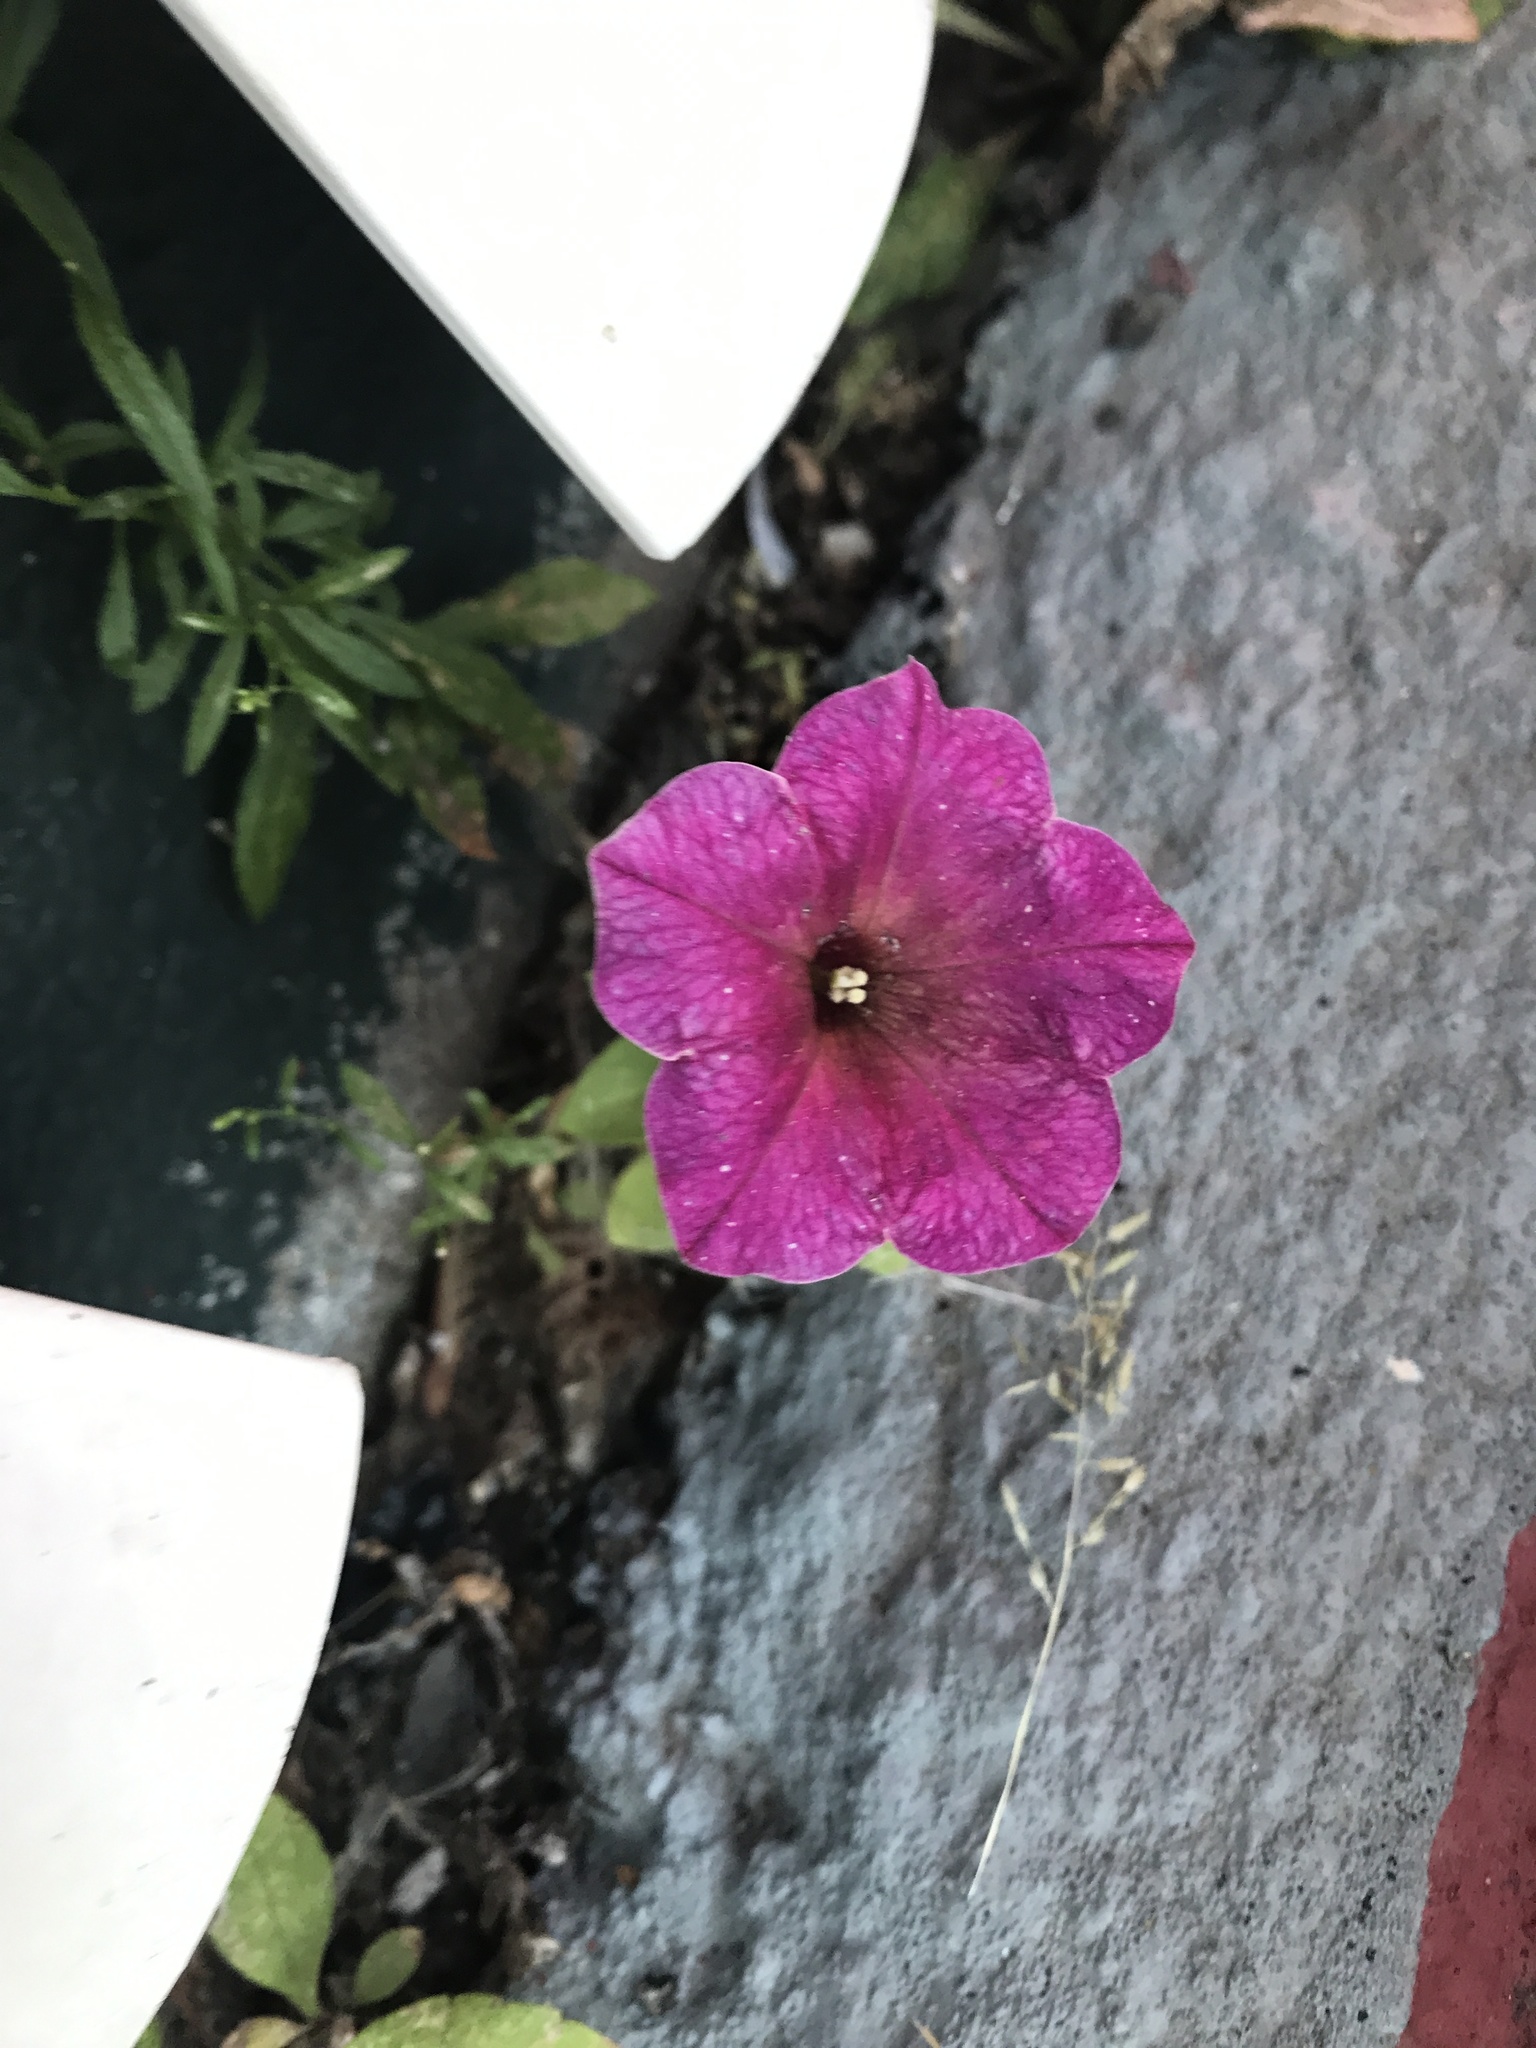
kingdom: Plantae
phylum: Tracheophyta
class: Magnoliopsida
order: Solanales
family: Solanaceae
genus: Petunia
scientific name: Petunia atkinsiana
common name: Petunia
